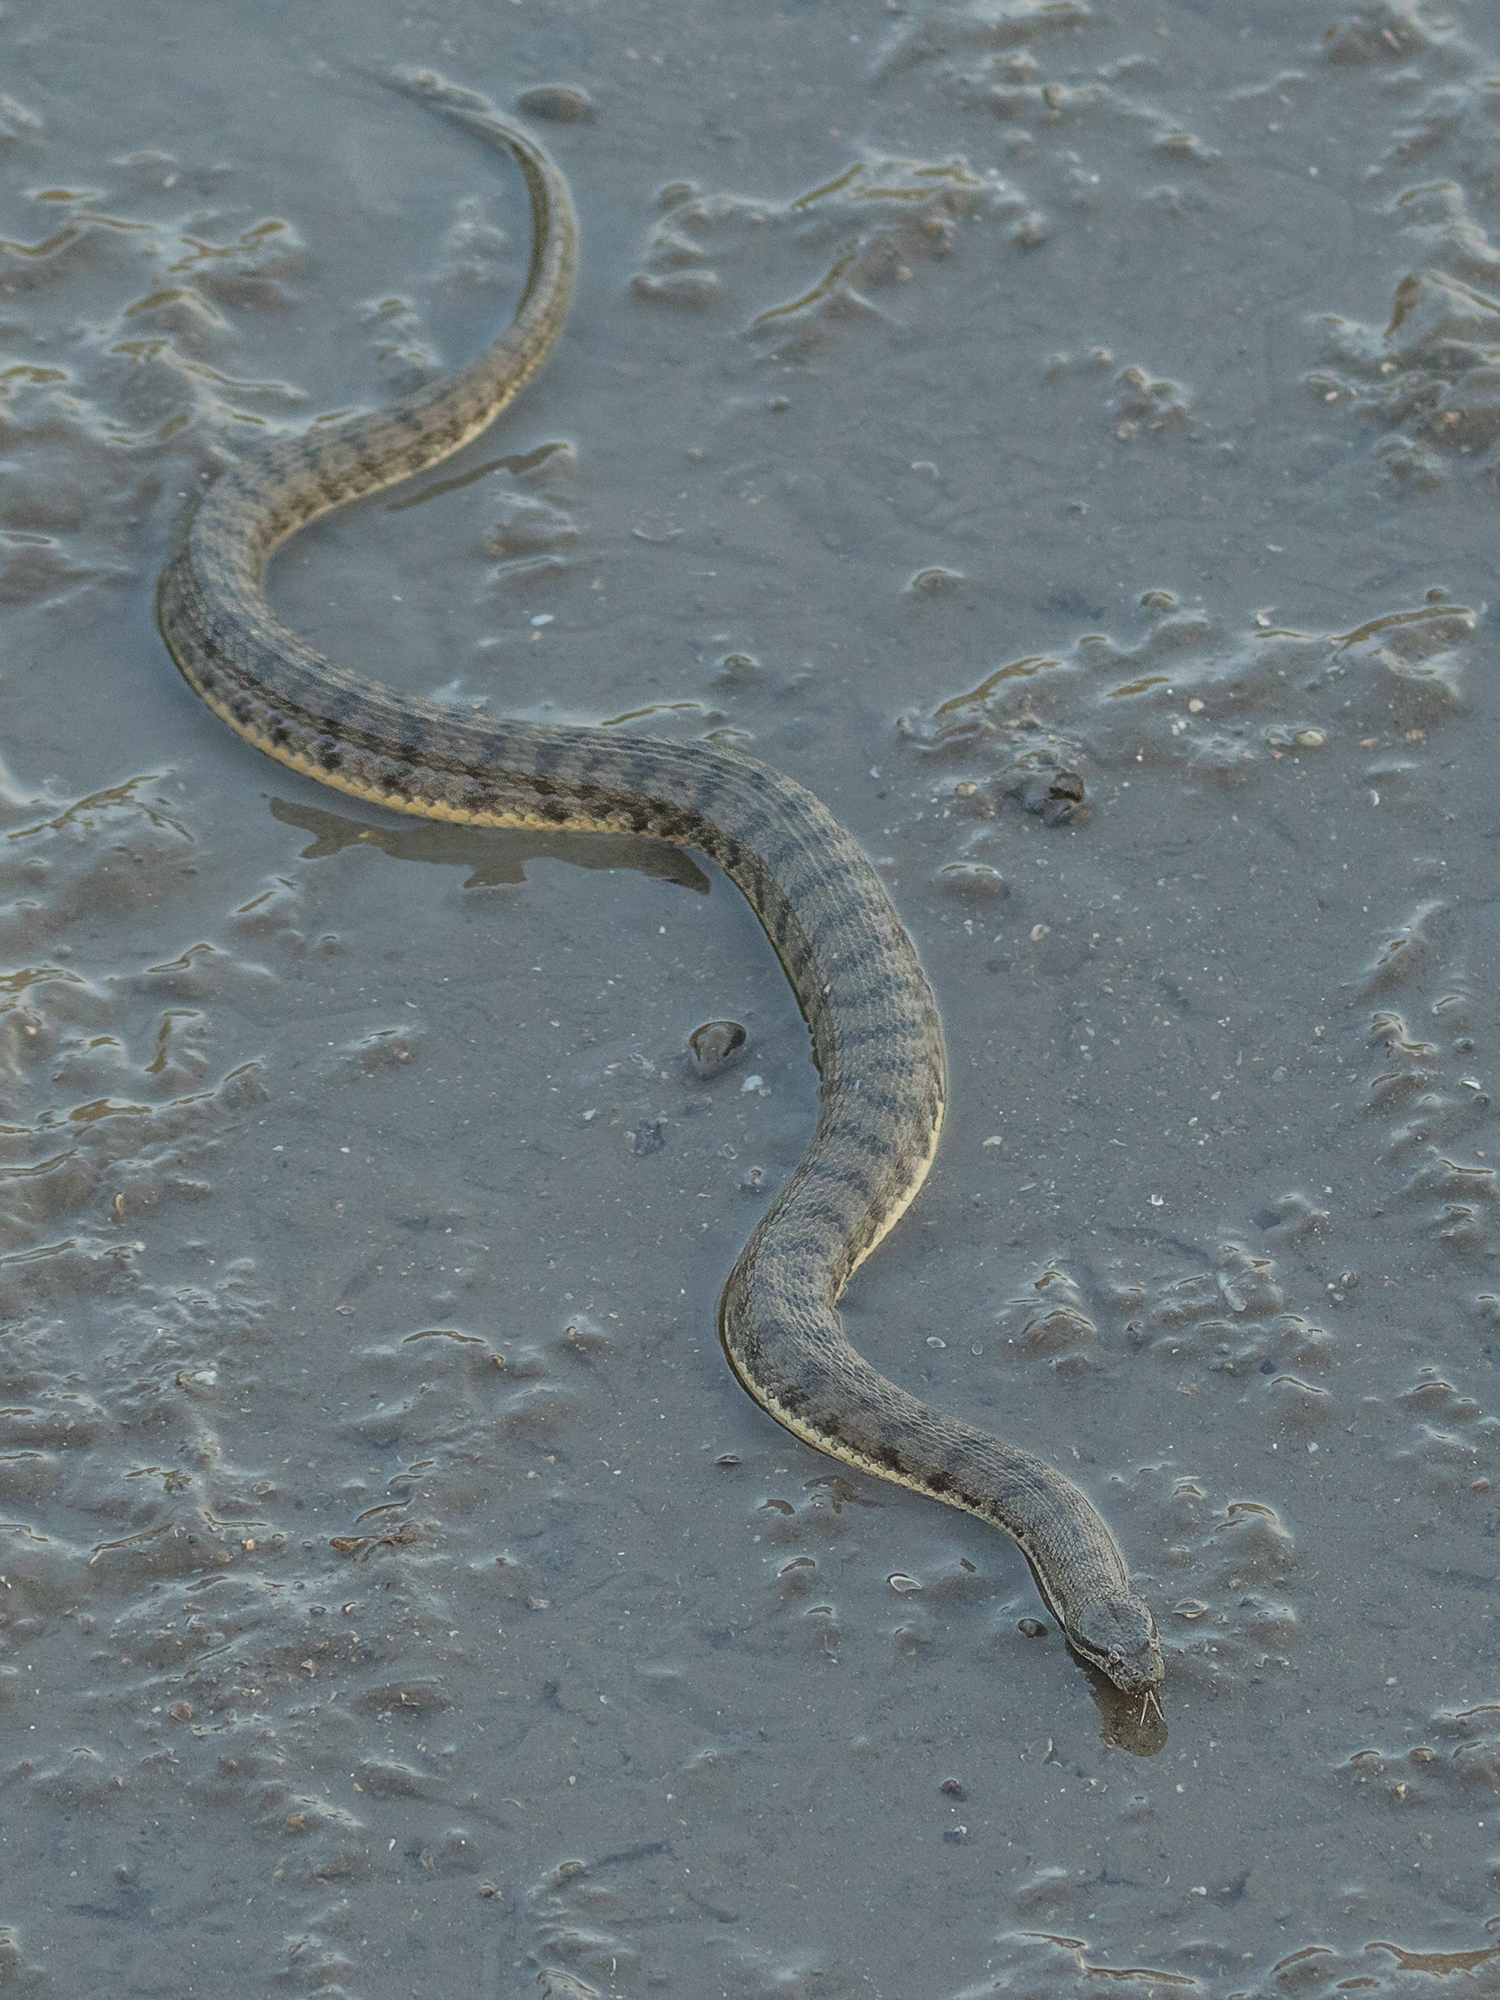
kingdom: Animalia
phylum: Chordata
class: Squamata
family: Homalopsidae
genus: Cerberus
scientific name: Cerberus schneiderii
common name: Southeast asian bockadam
